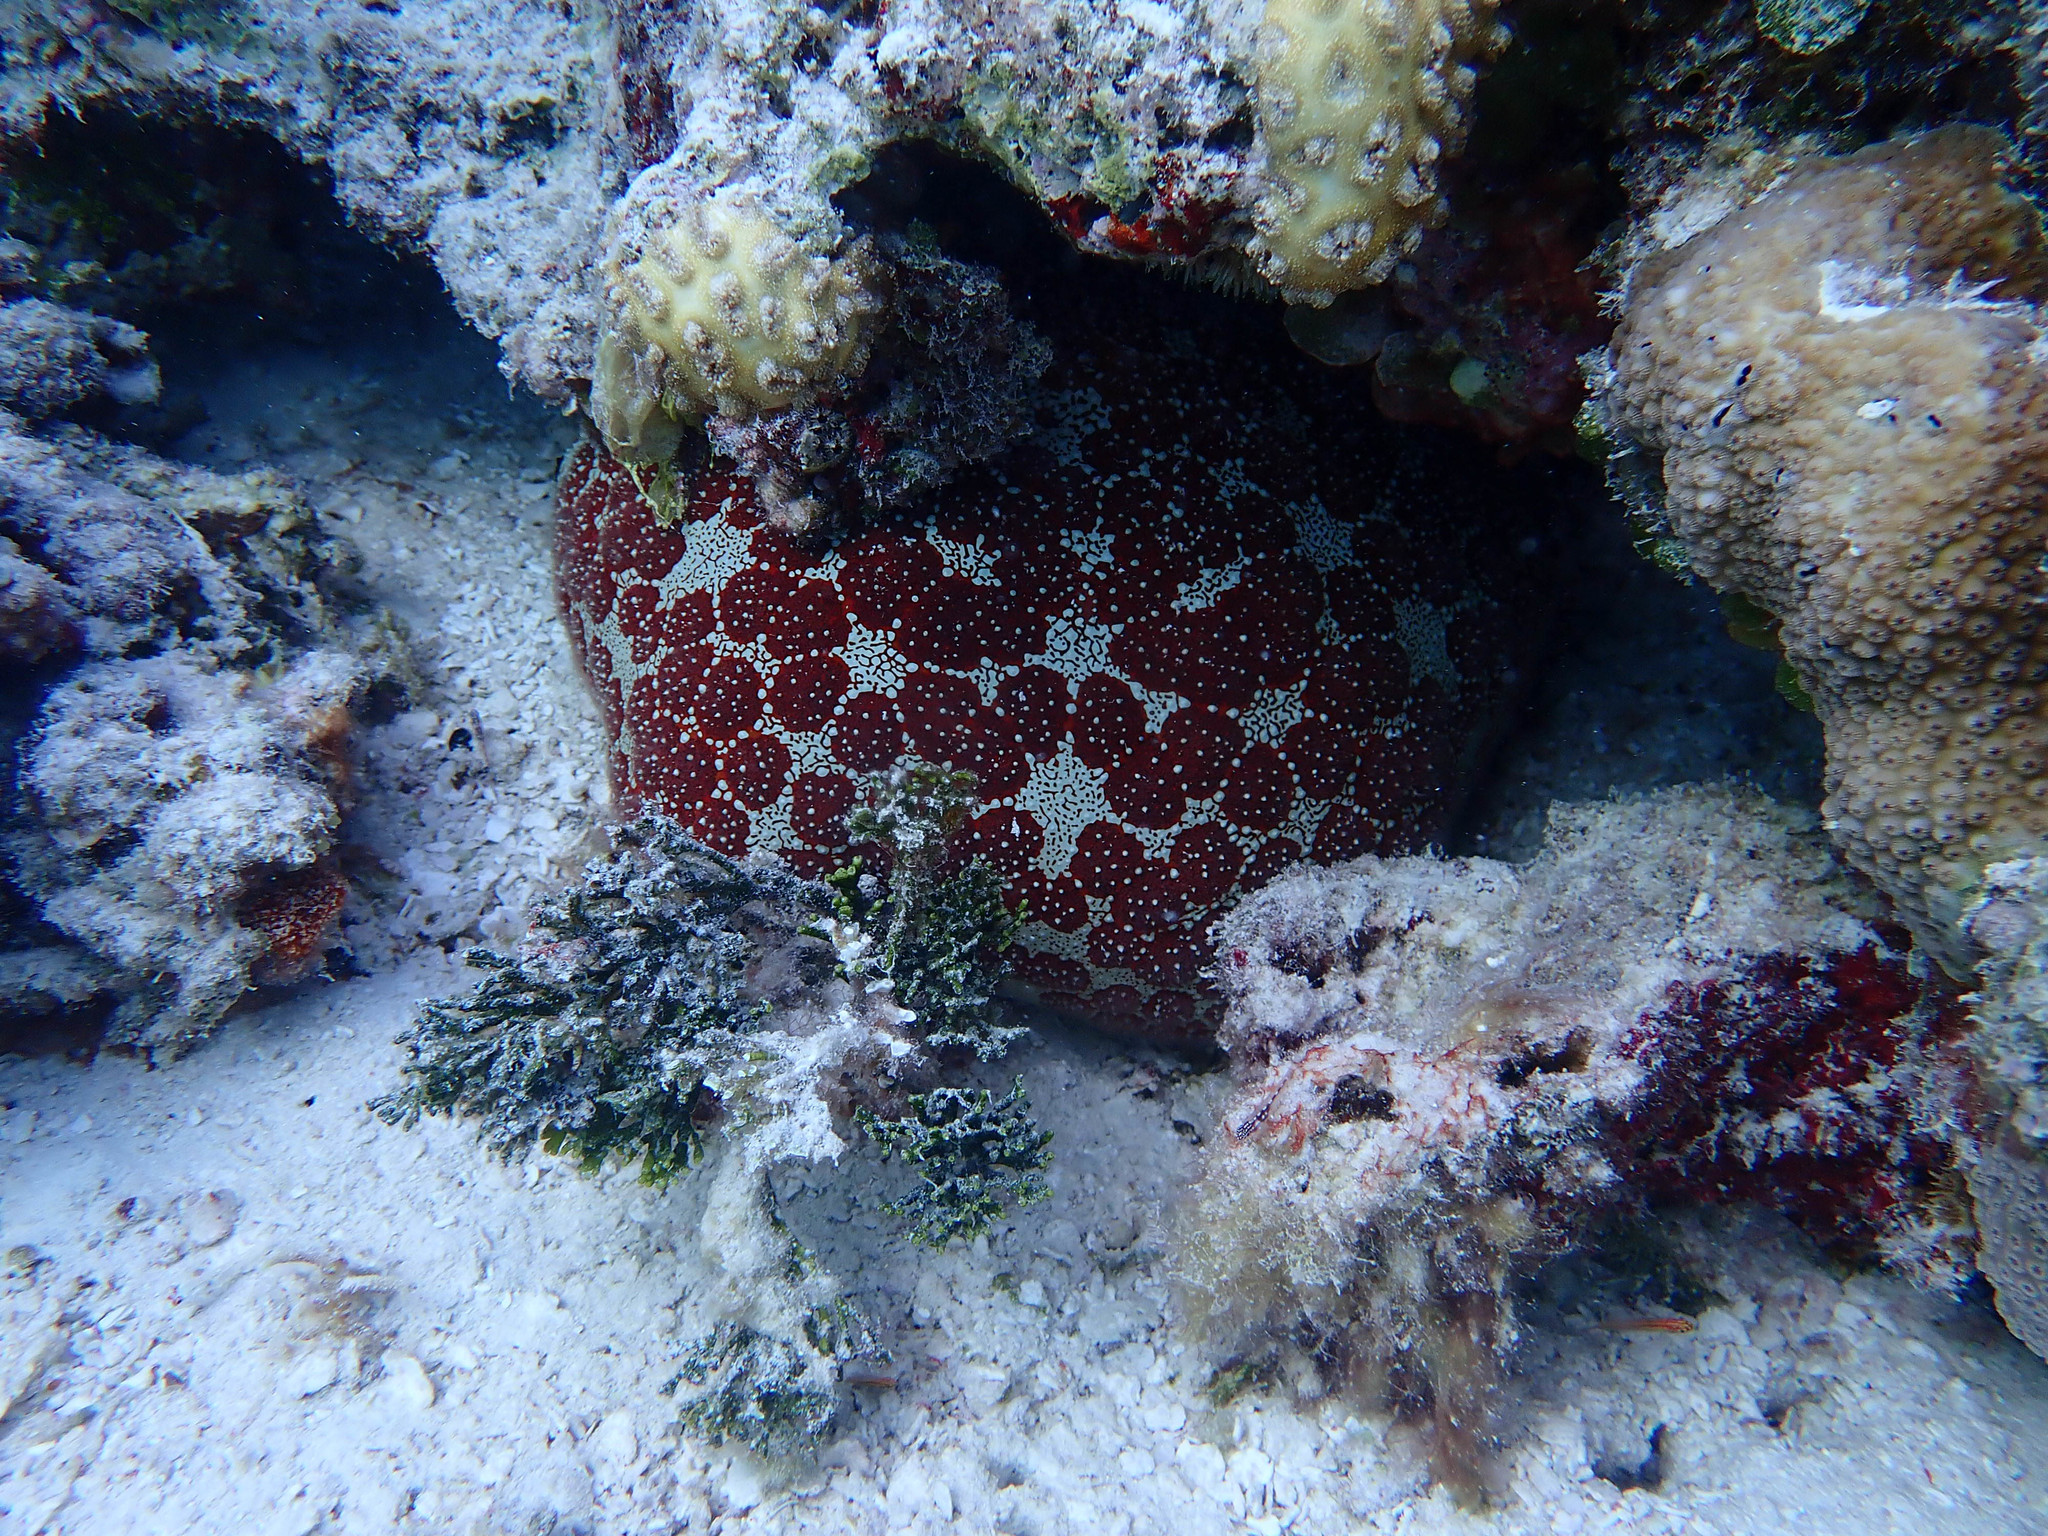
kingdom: Animalia
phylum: Echinodermata
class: Asteroidea
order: Valvatida
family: Oreasteridae
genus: Culcita
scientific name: Culcita novaeguineae
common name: Cushion star
